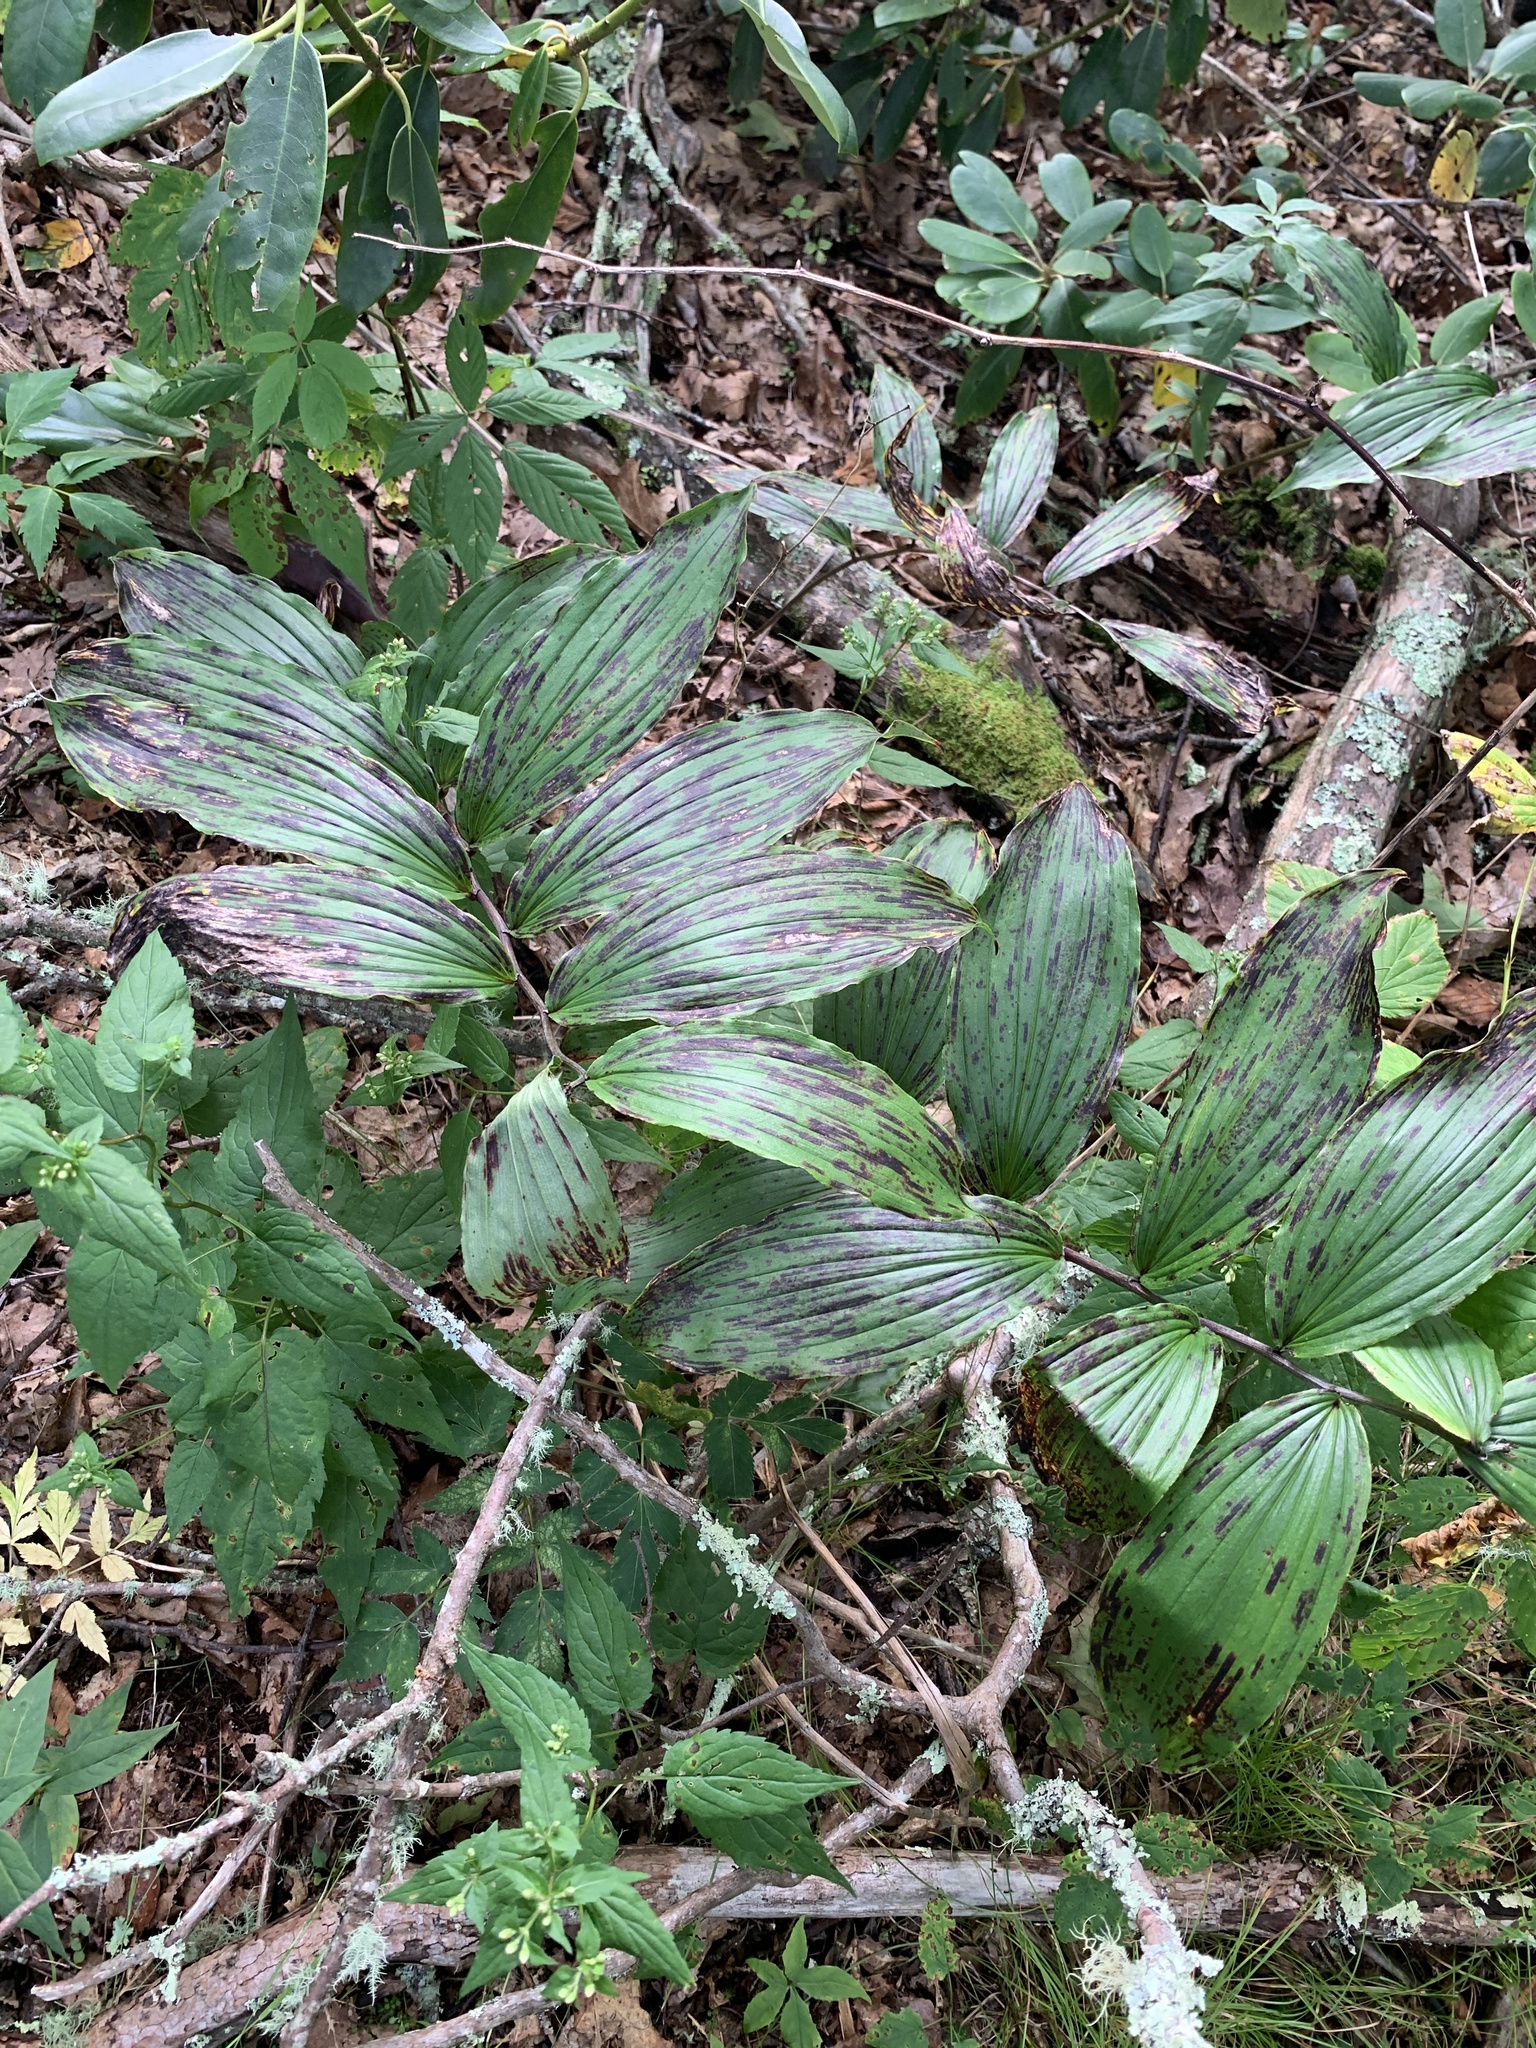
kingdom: Plantae
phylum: Tracheophyta
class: Liliopsida
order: Asparagales
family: Asparagaceae
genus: Maianthemum
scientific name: Maianthemum racemosum
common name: False spikenard
